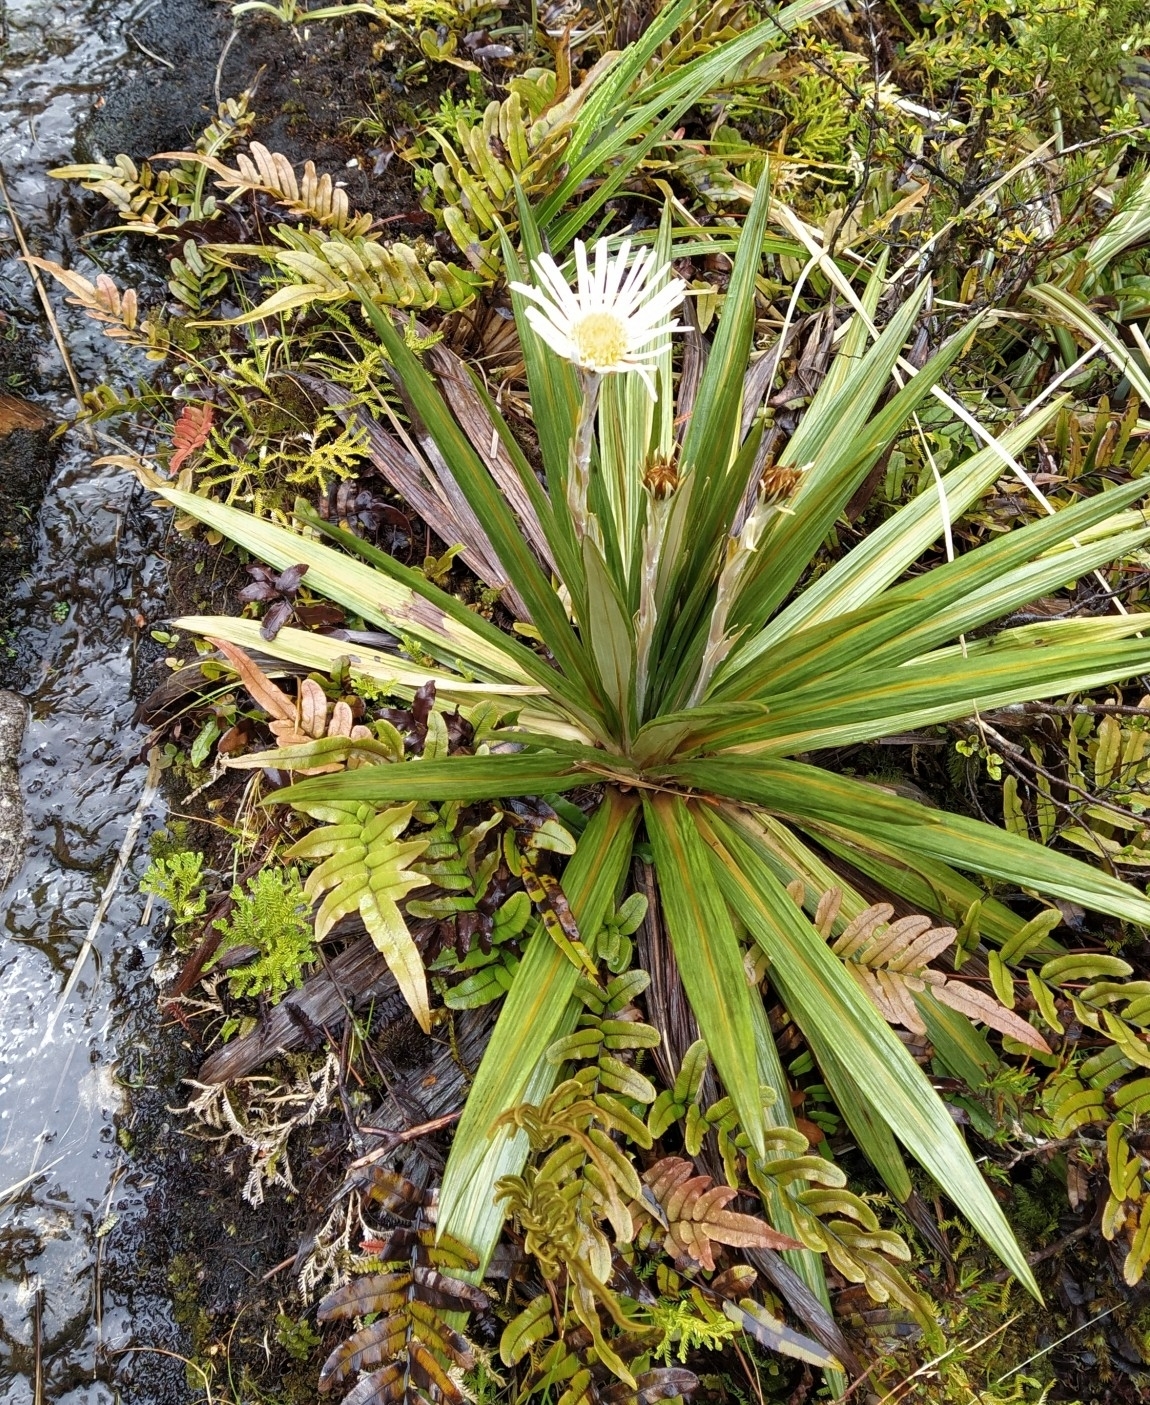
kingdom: Plantae
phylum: Tracheophyta
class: Magnoliopsida
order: Asterales
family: Asteraceae
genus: Celmisia
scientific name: Celmisia coriacea
